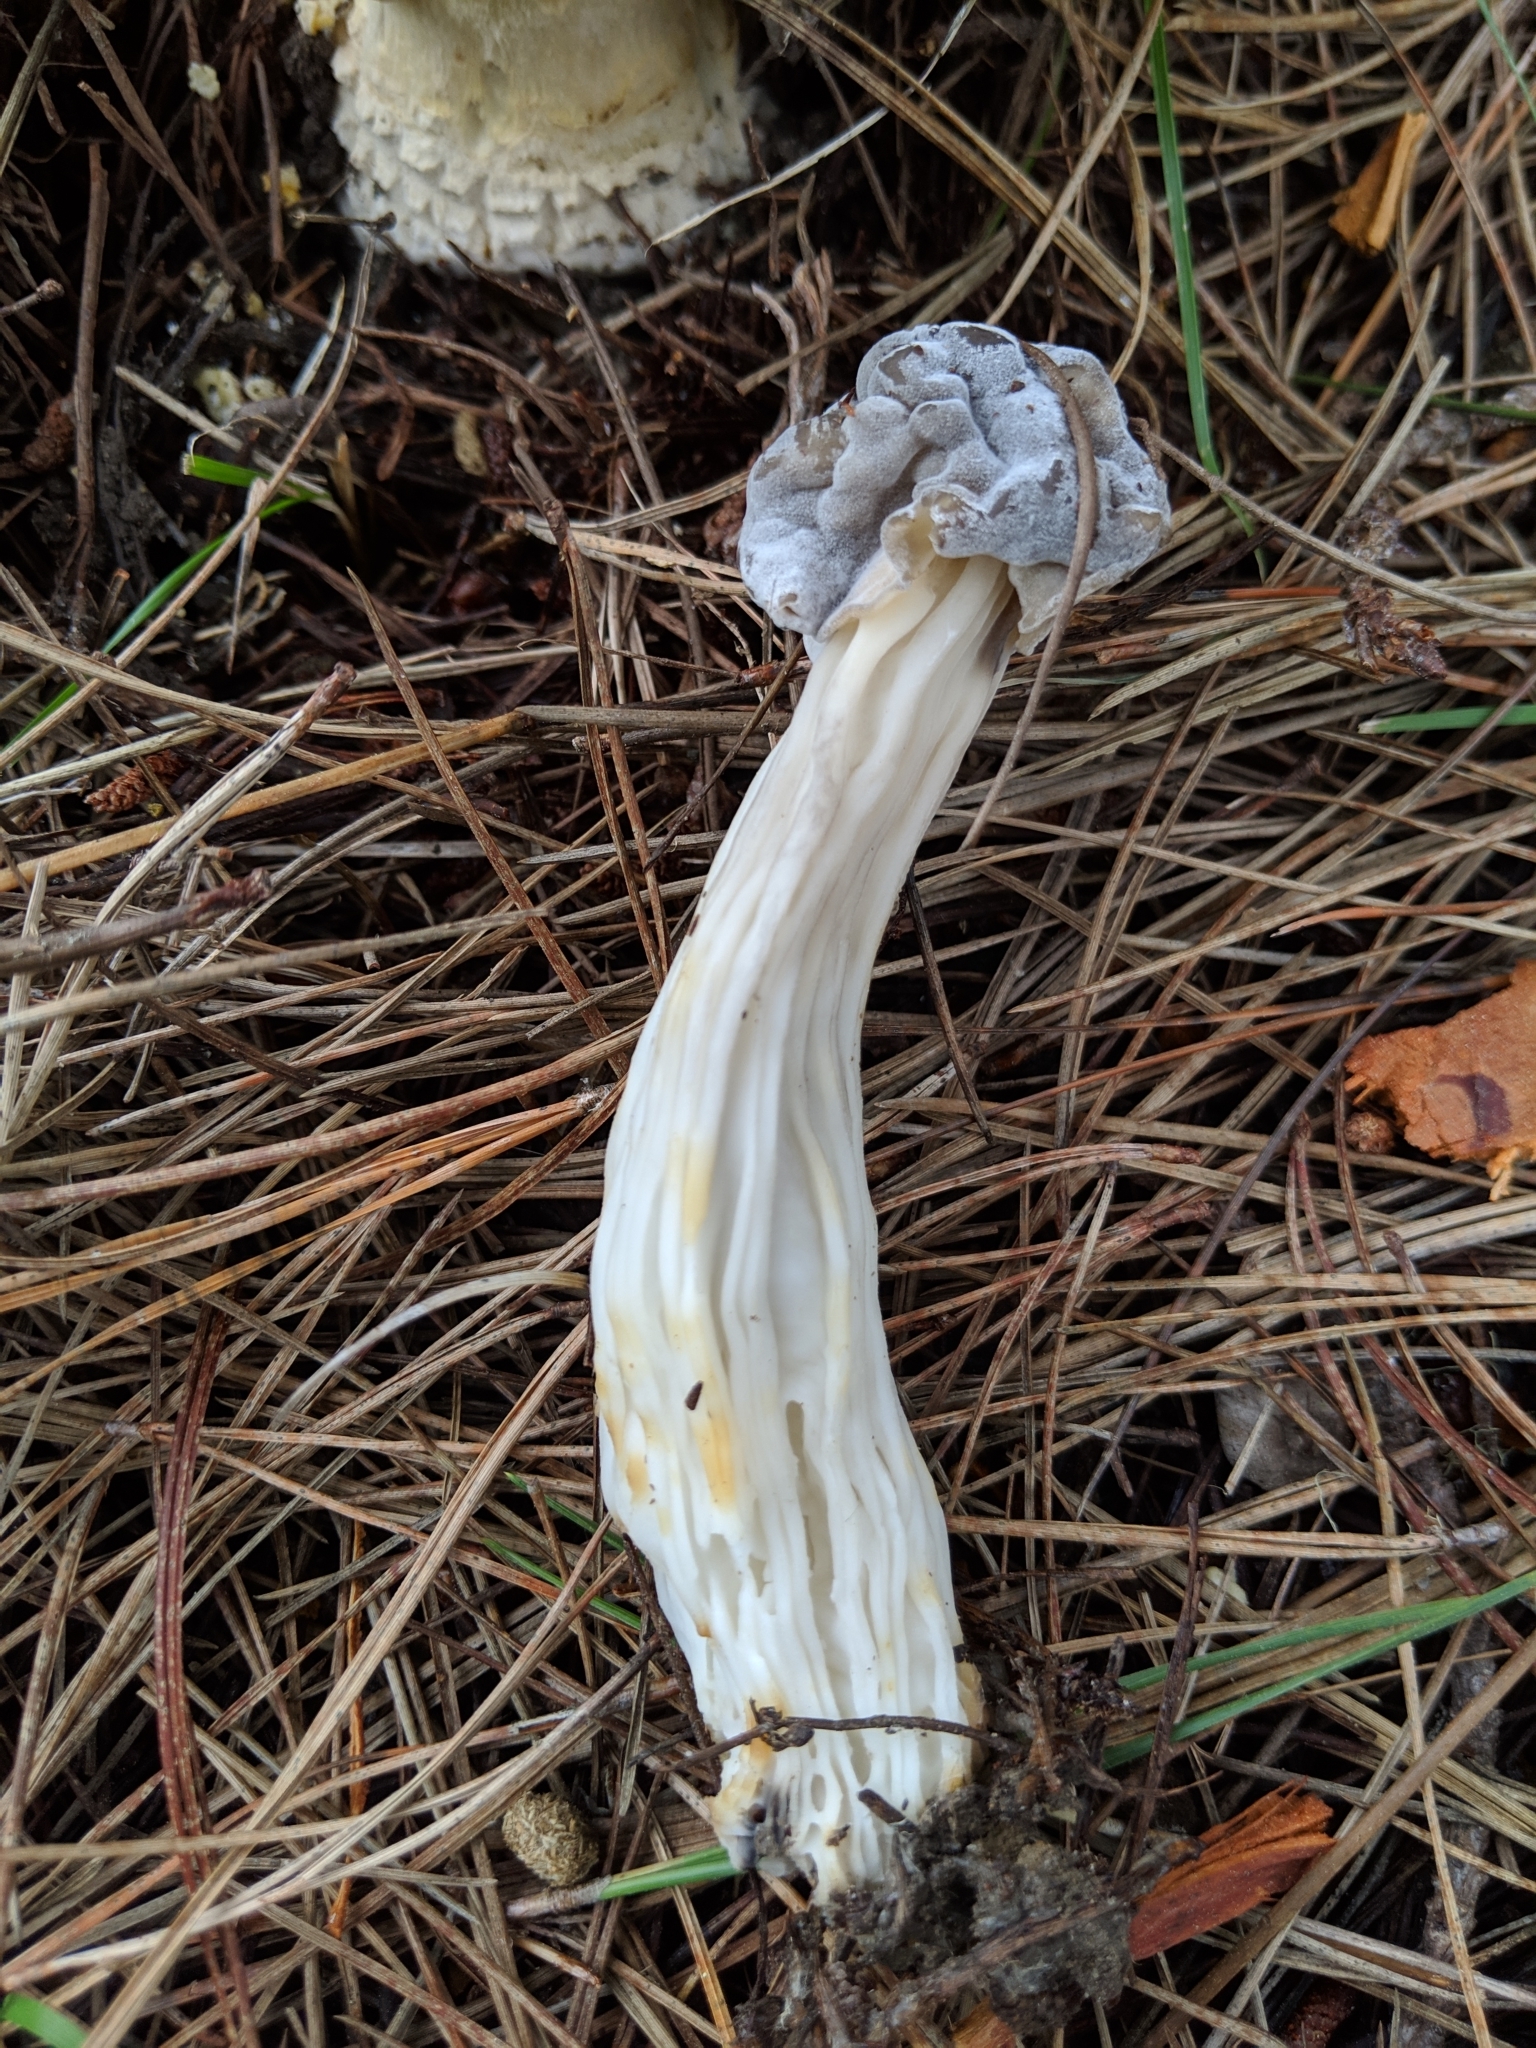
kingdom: Fungi
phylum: Ascomycota
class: Sordariomycetes
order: Hypocreales
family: Hypocreaceae
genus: Hypomyces
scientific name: Hypomyces cervinus
